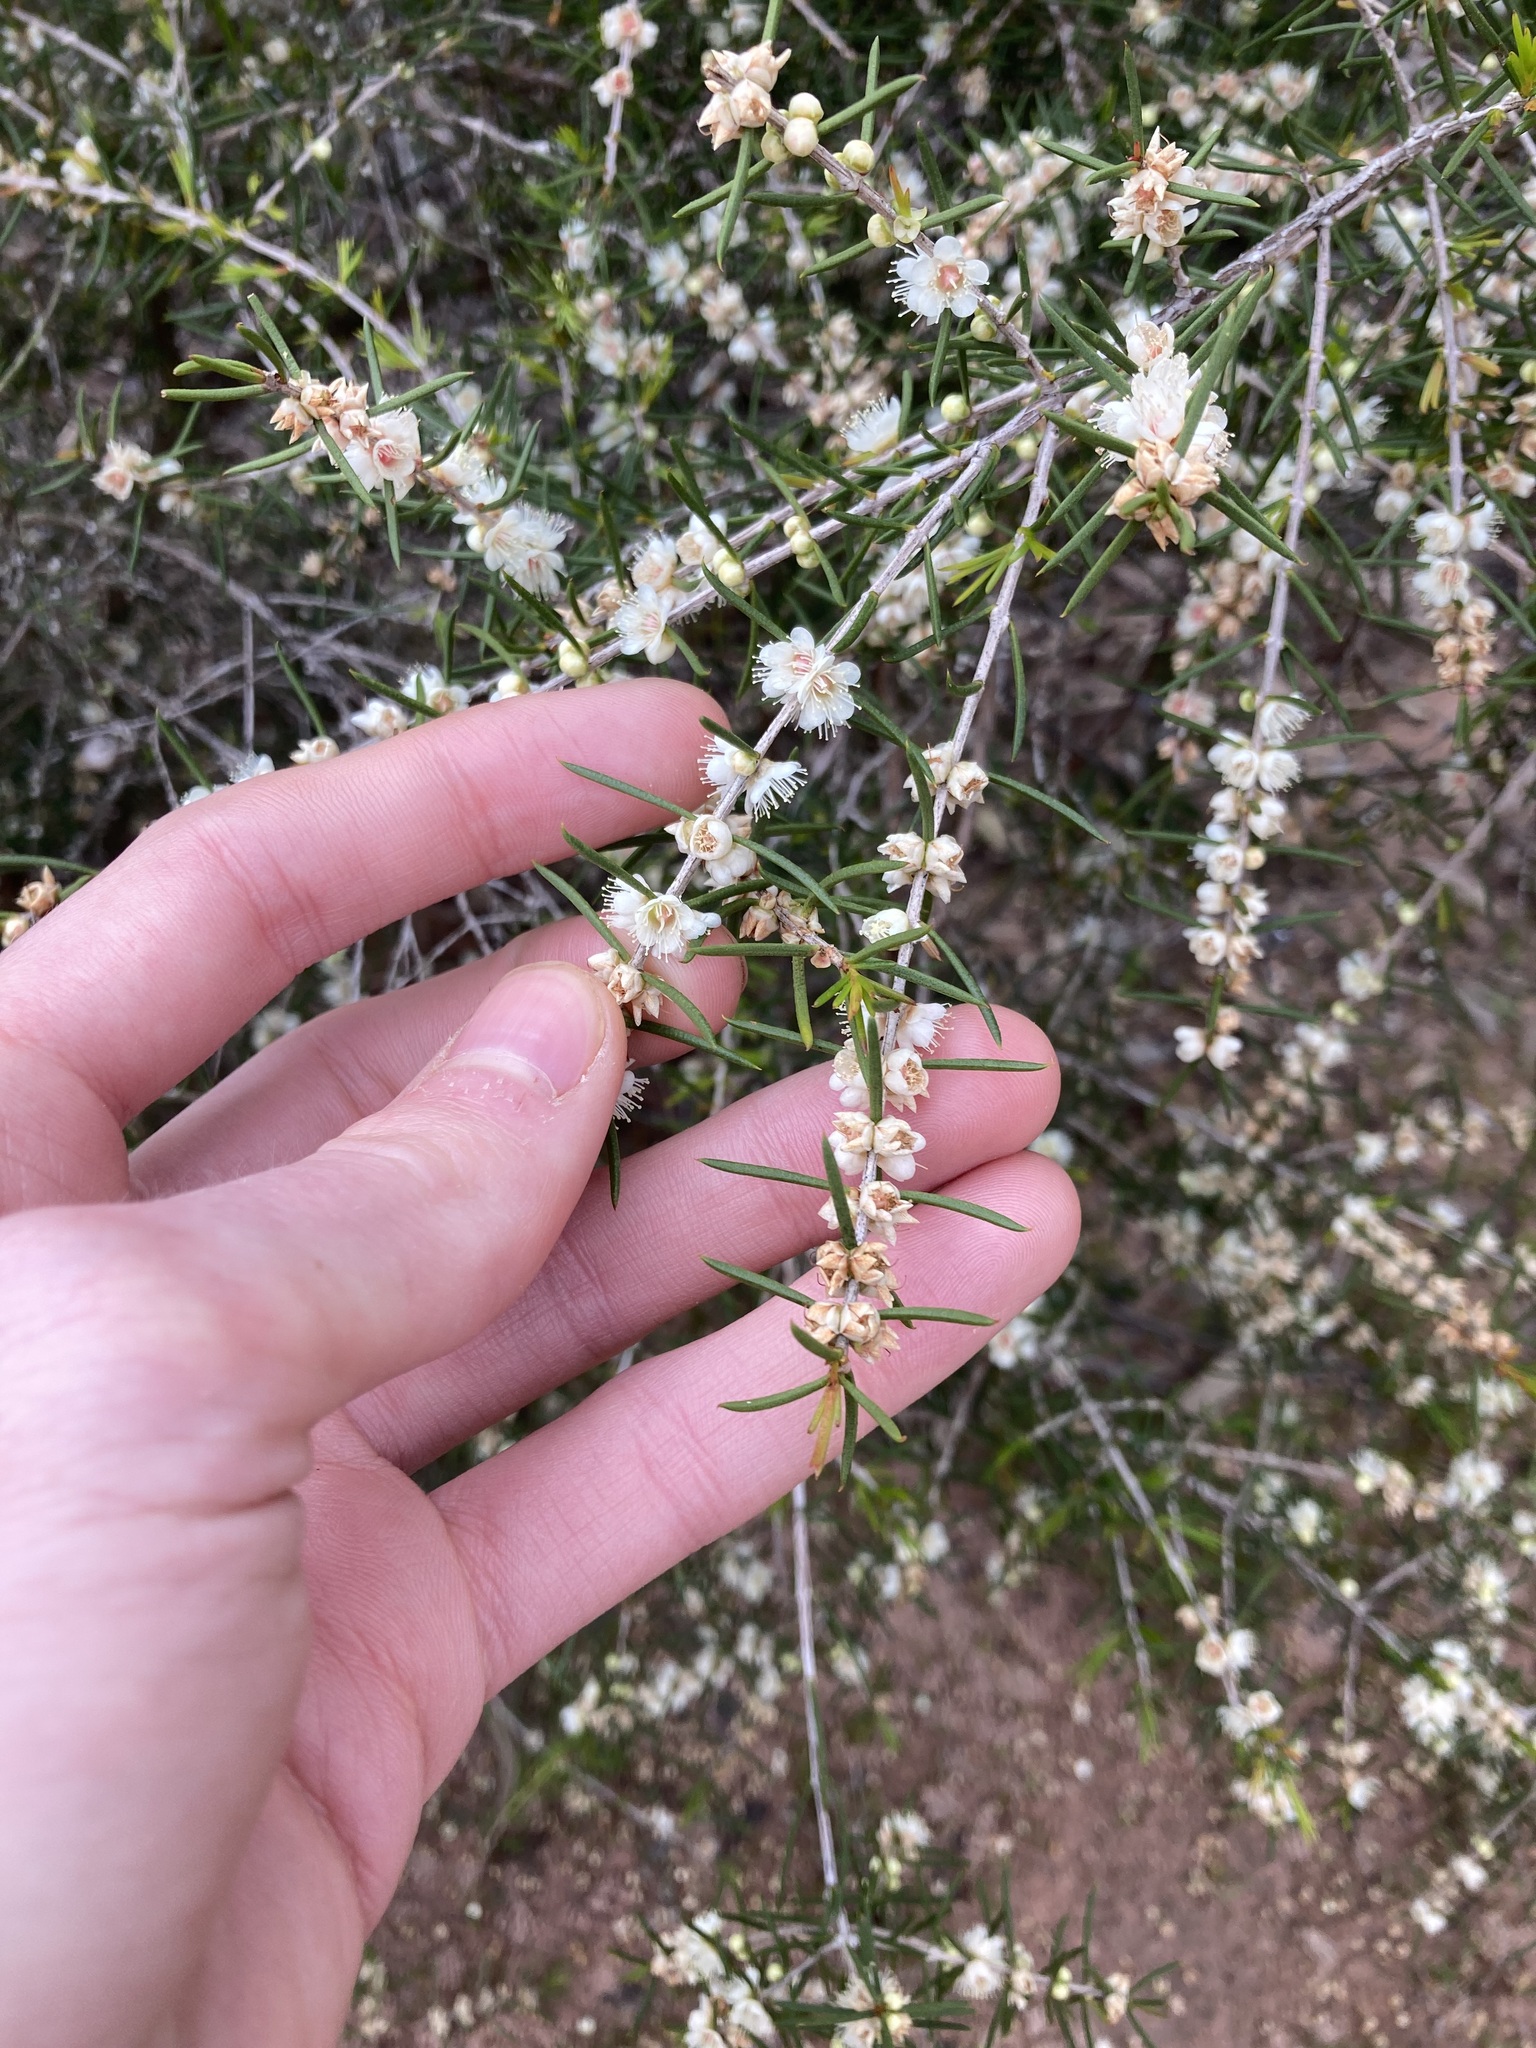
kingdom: Plantae
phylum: Tracheophyta
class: Magnoliopsida
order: Myrtales
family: Myrtaceae
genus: Hypocalymma
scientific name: Hypocalymma angustifolium
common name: White myrtle
